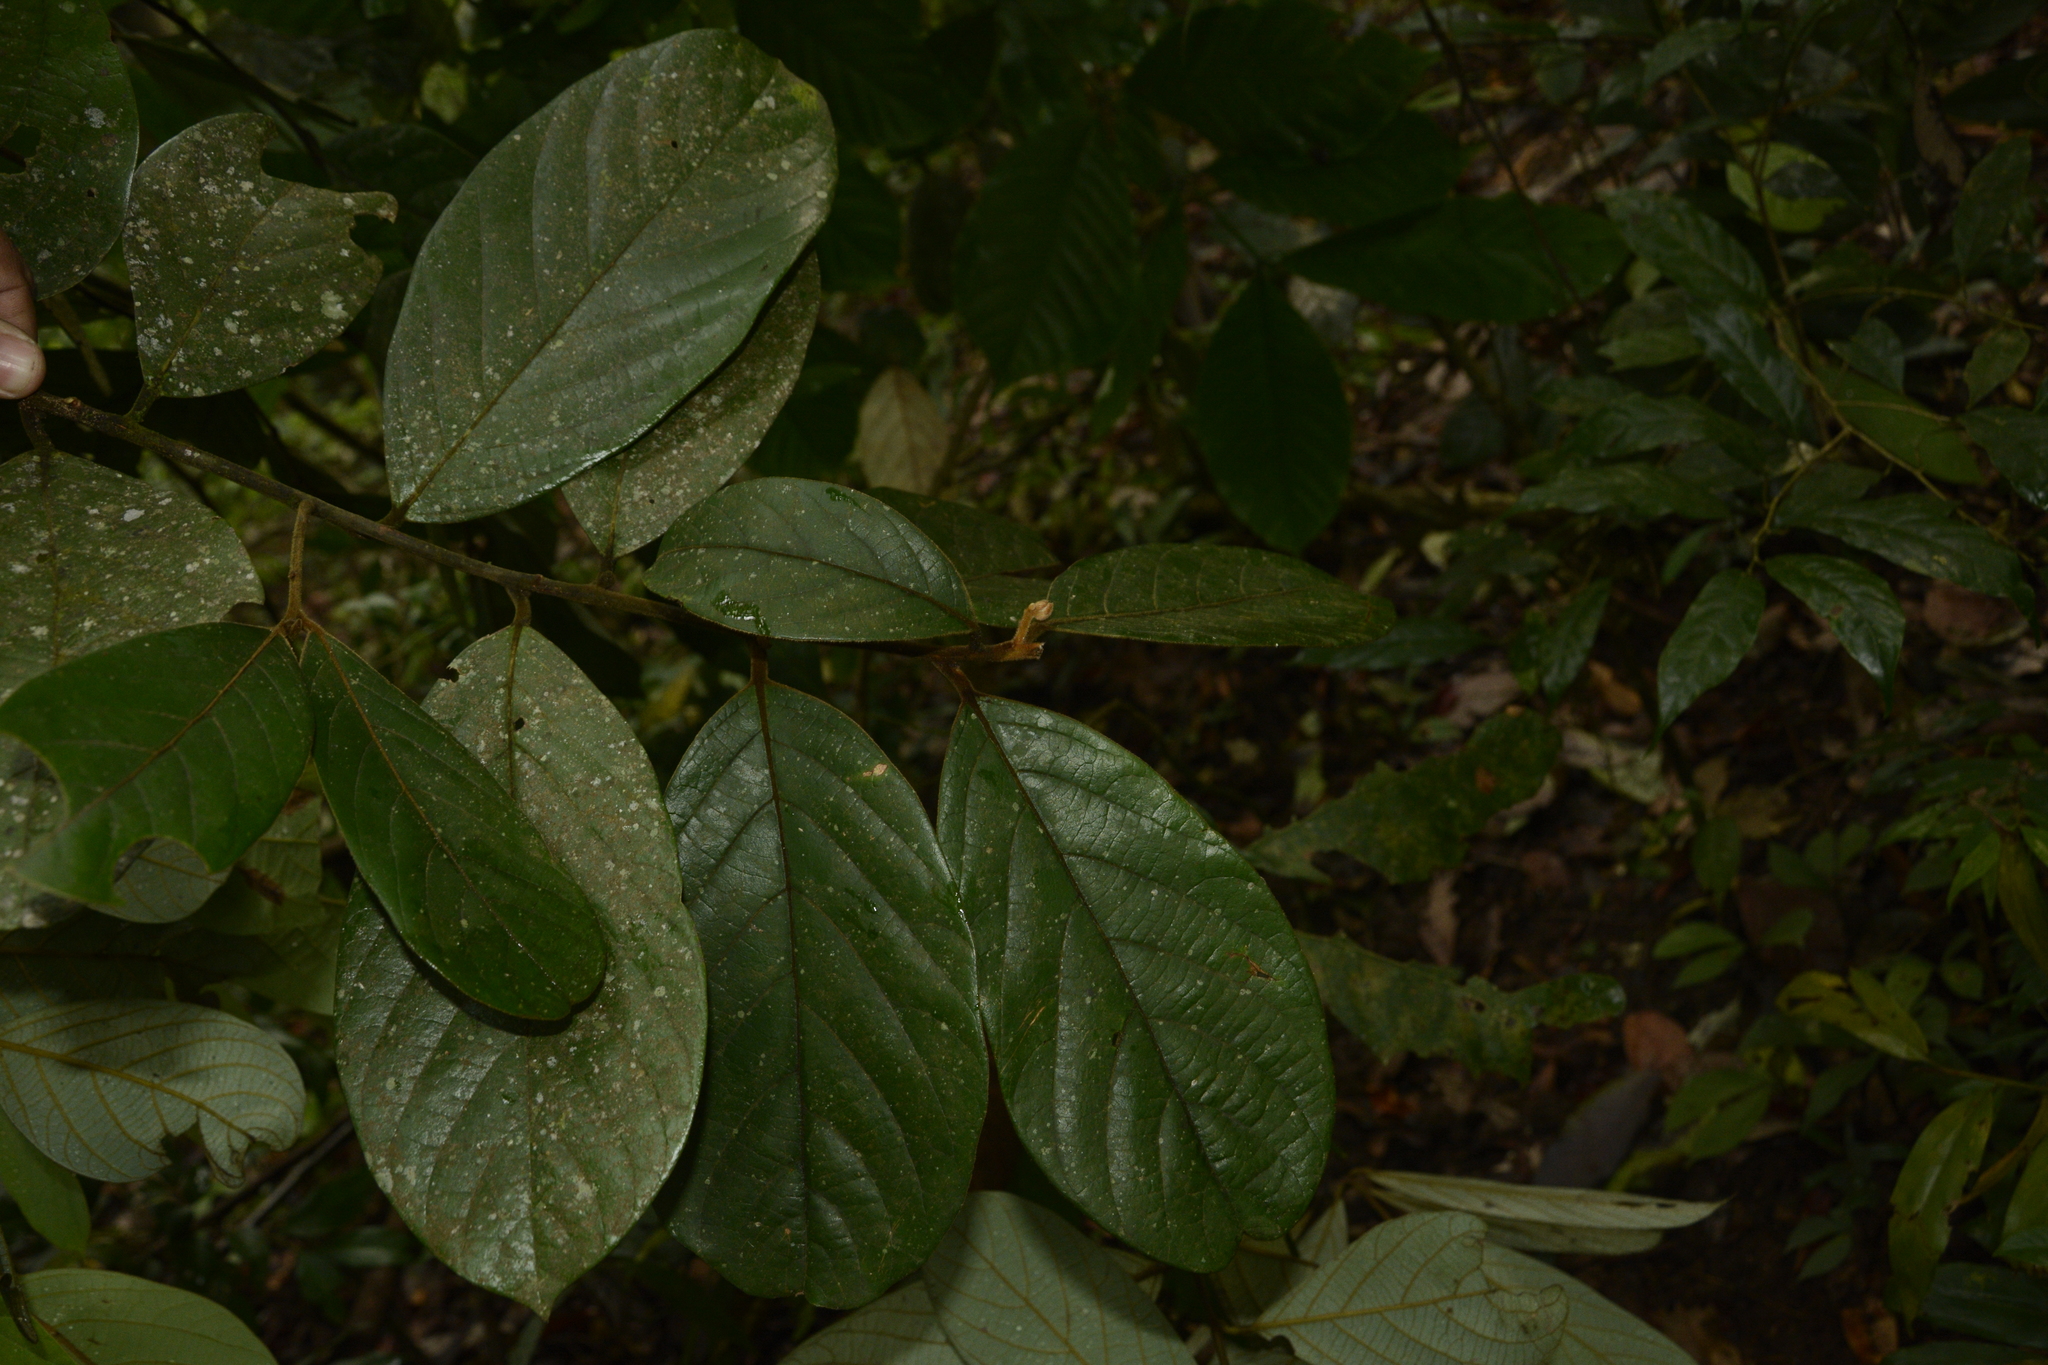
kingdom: Plantae
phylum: Tracheophyta
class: Magnoliopsida
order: Laurales
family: Lauraceae
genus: Cryptocarya
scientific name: Cryptocarya anamalayana
